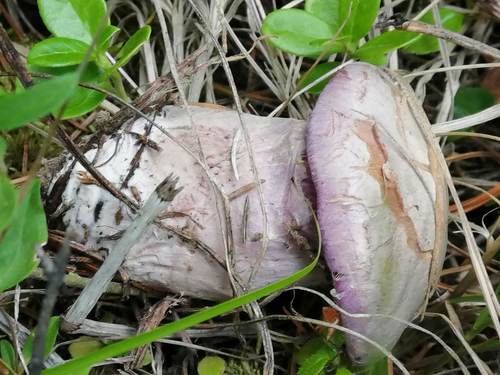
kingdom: Fungi
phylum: Basidiomycota
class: Agaricomycetes
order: Agaricales
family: Cortinariaceae
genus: Cortinarius
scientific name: Cortinarius camphoratus
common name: Goatcheese webcap
